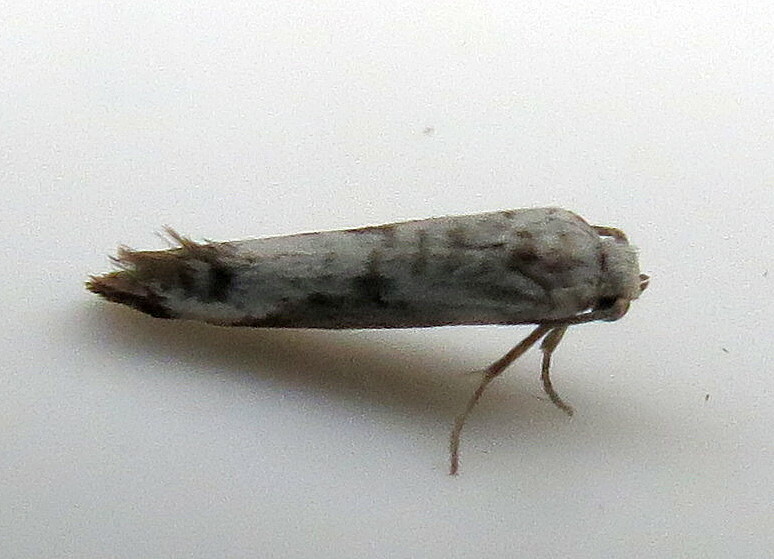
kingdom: Animalia
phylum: Arthropoda
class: Insecta
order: Lepidoptera
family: Praydidae
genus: Prays
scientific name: Prays fraxinella
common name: Ash bud moth
